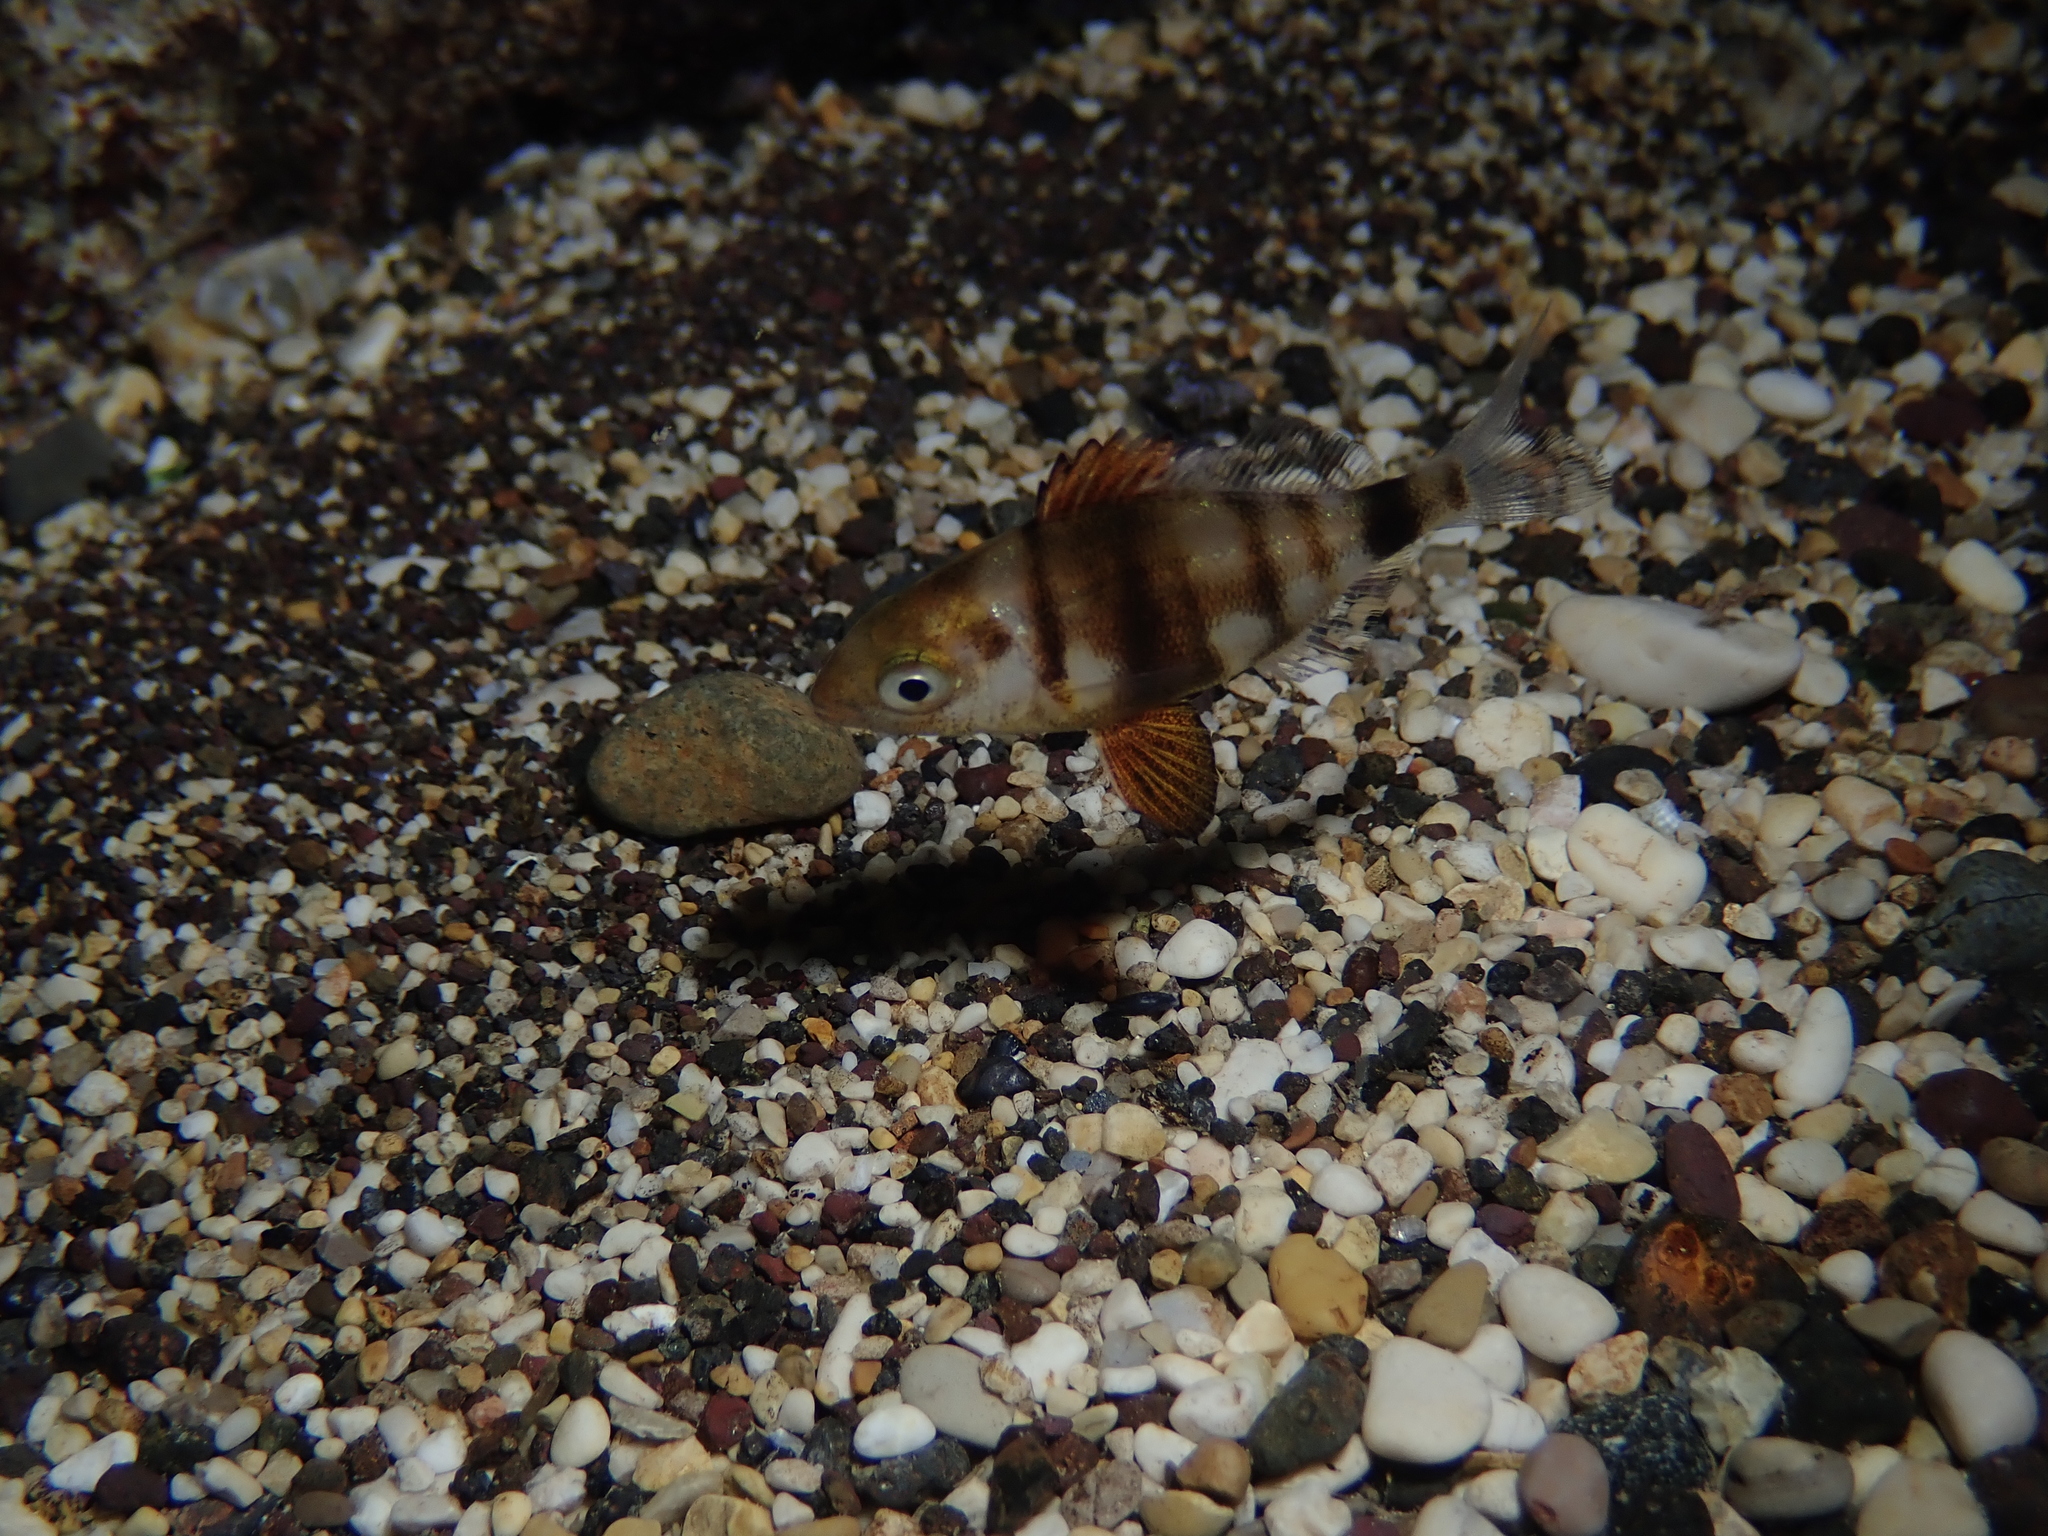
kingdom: Animalia
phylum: Chordata
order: Perciformes
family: Sparidae
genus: Diplodus
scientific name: Diplodus puntazzo
